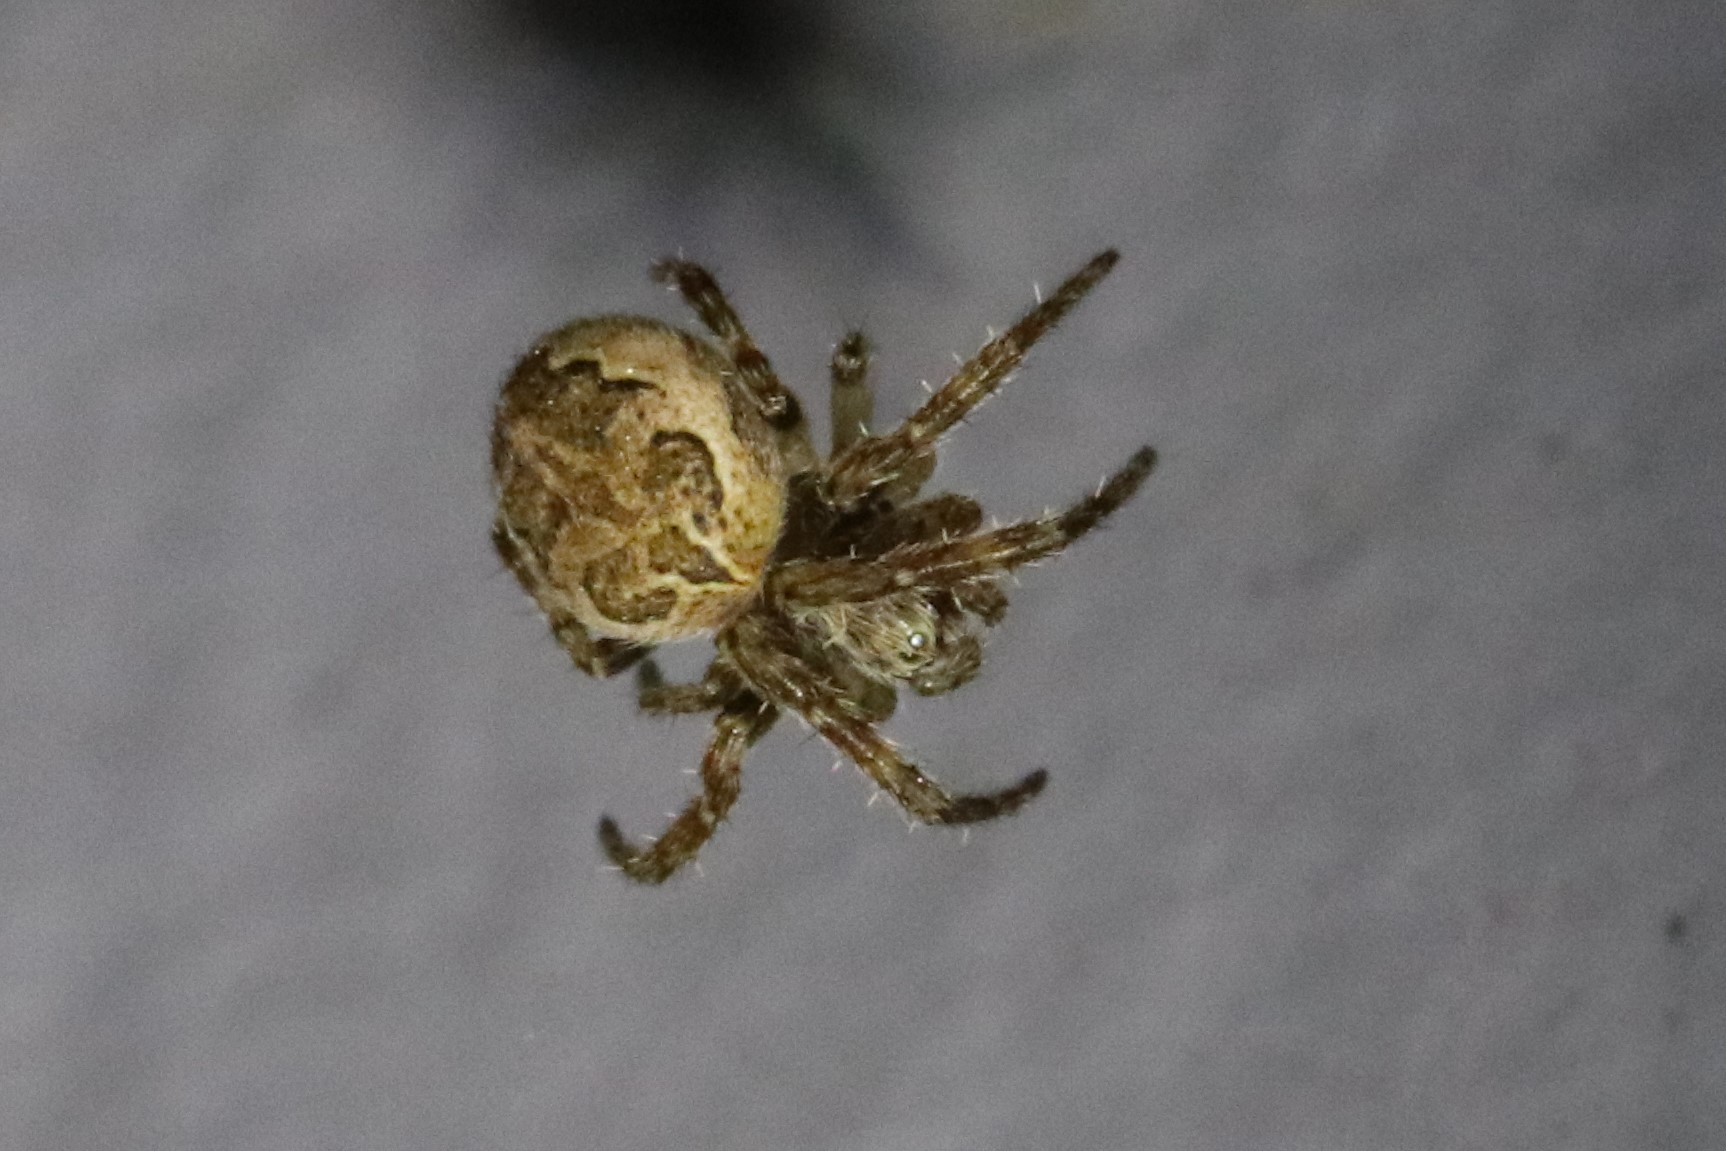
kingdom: Animalia
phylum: Arthropoda
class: Arachnida
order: Araneae
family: Araneidae
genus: Larinioides
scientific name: Larinioides sclopetarius
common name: Bridge orbweaver
